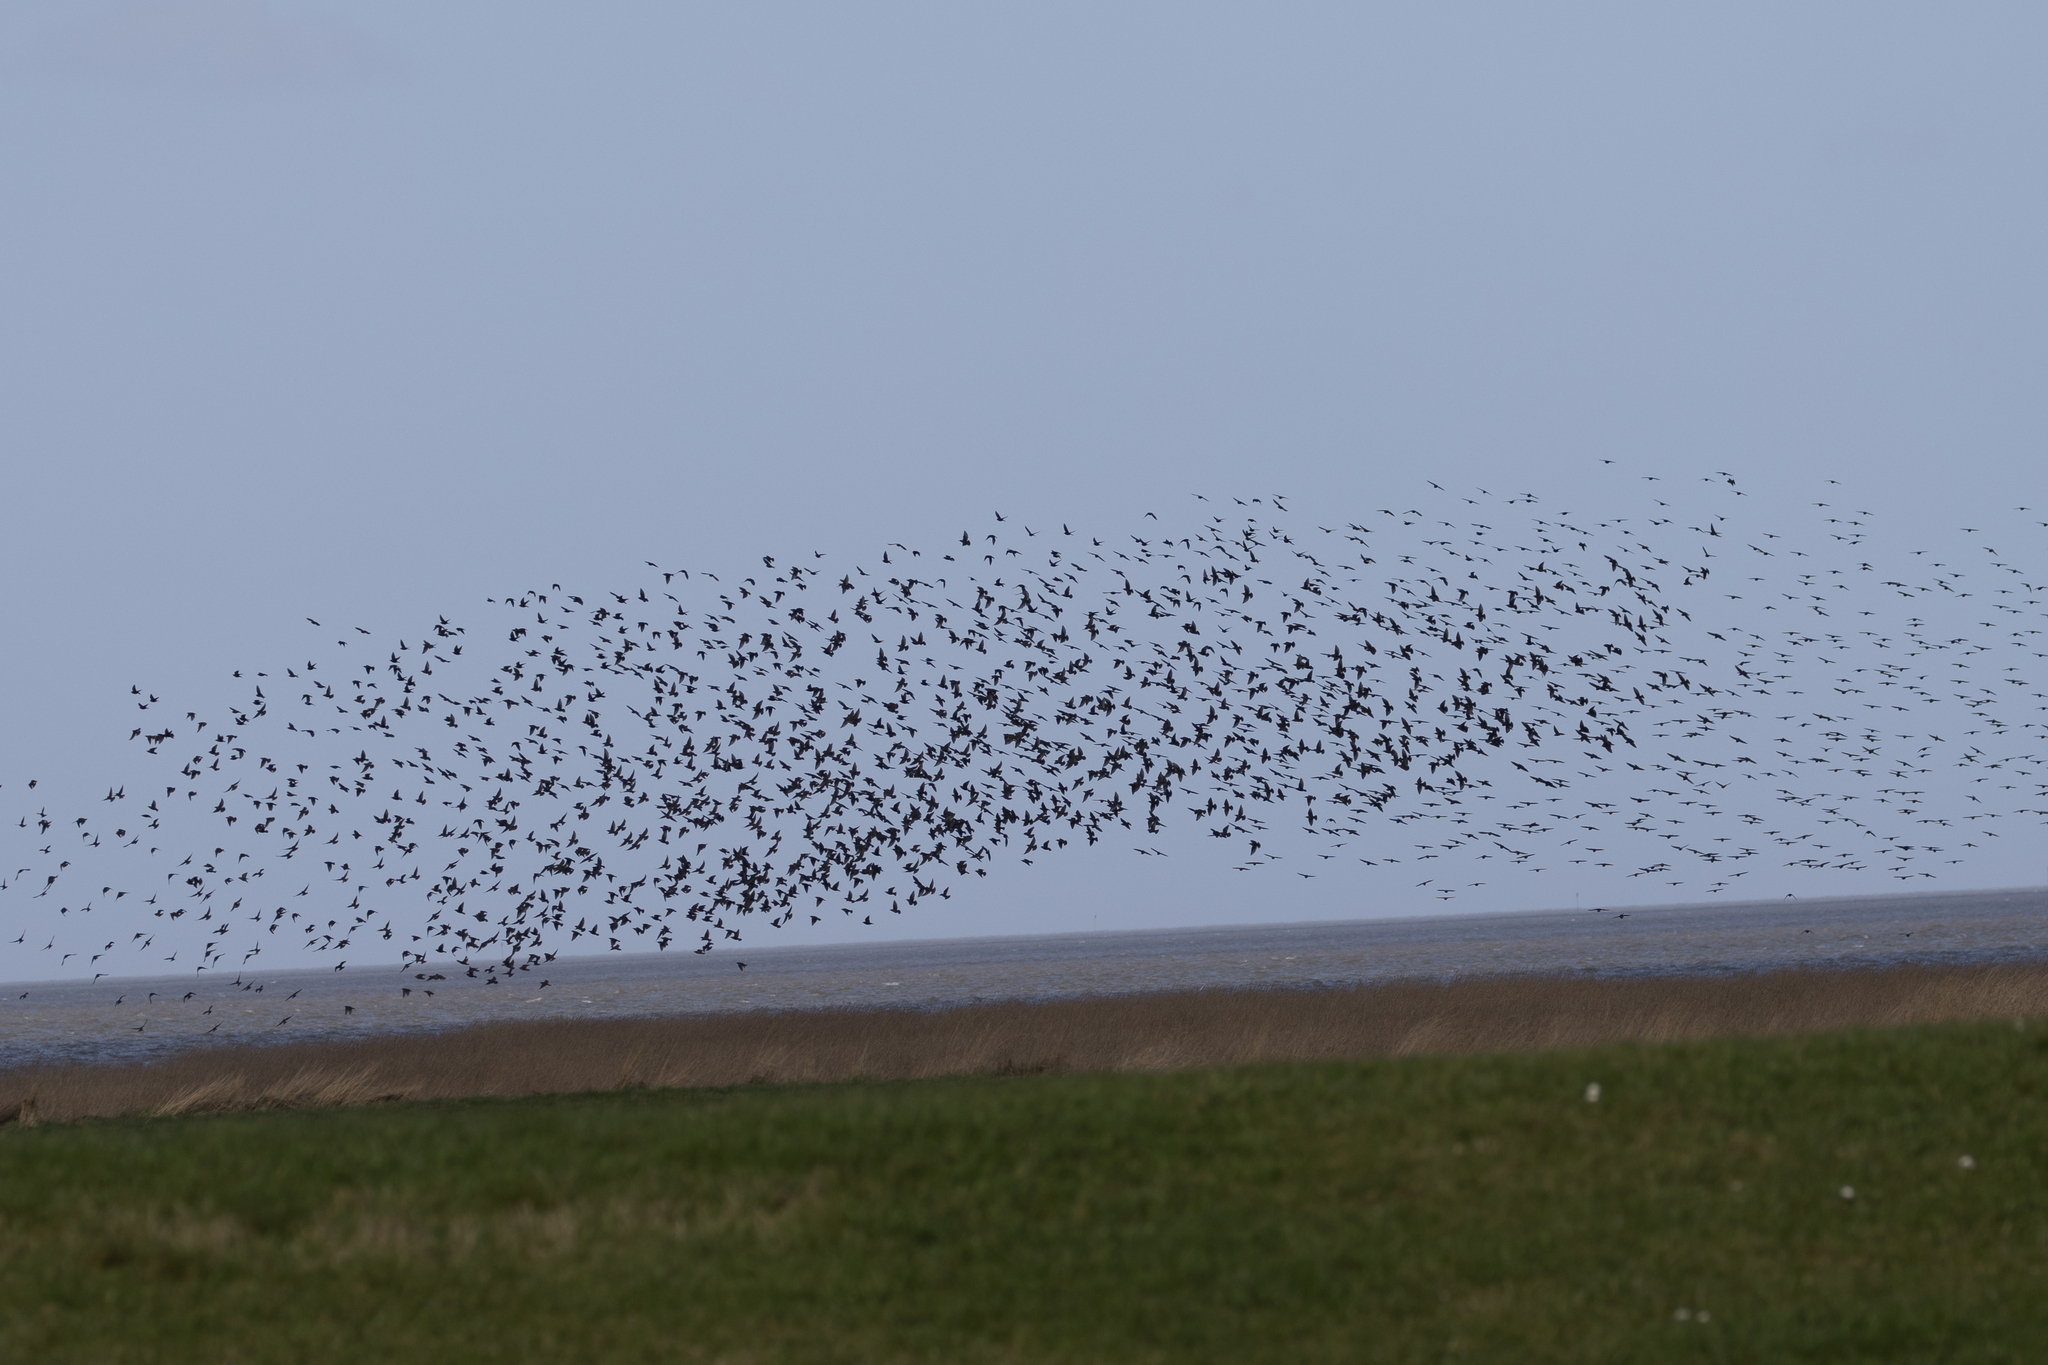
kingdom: Animalia
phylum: Chordata
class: Aves
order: Passeriformes
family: Sturnidae
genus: Sturnus
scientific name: Sturnus vulgaris
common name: Common starling
